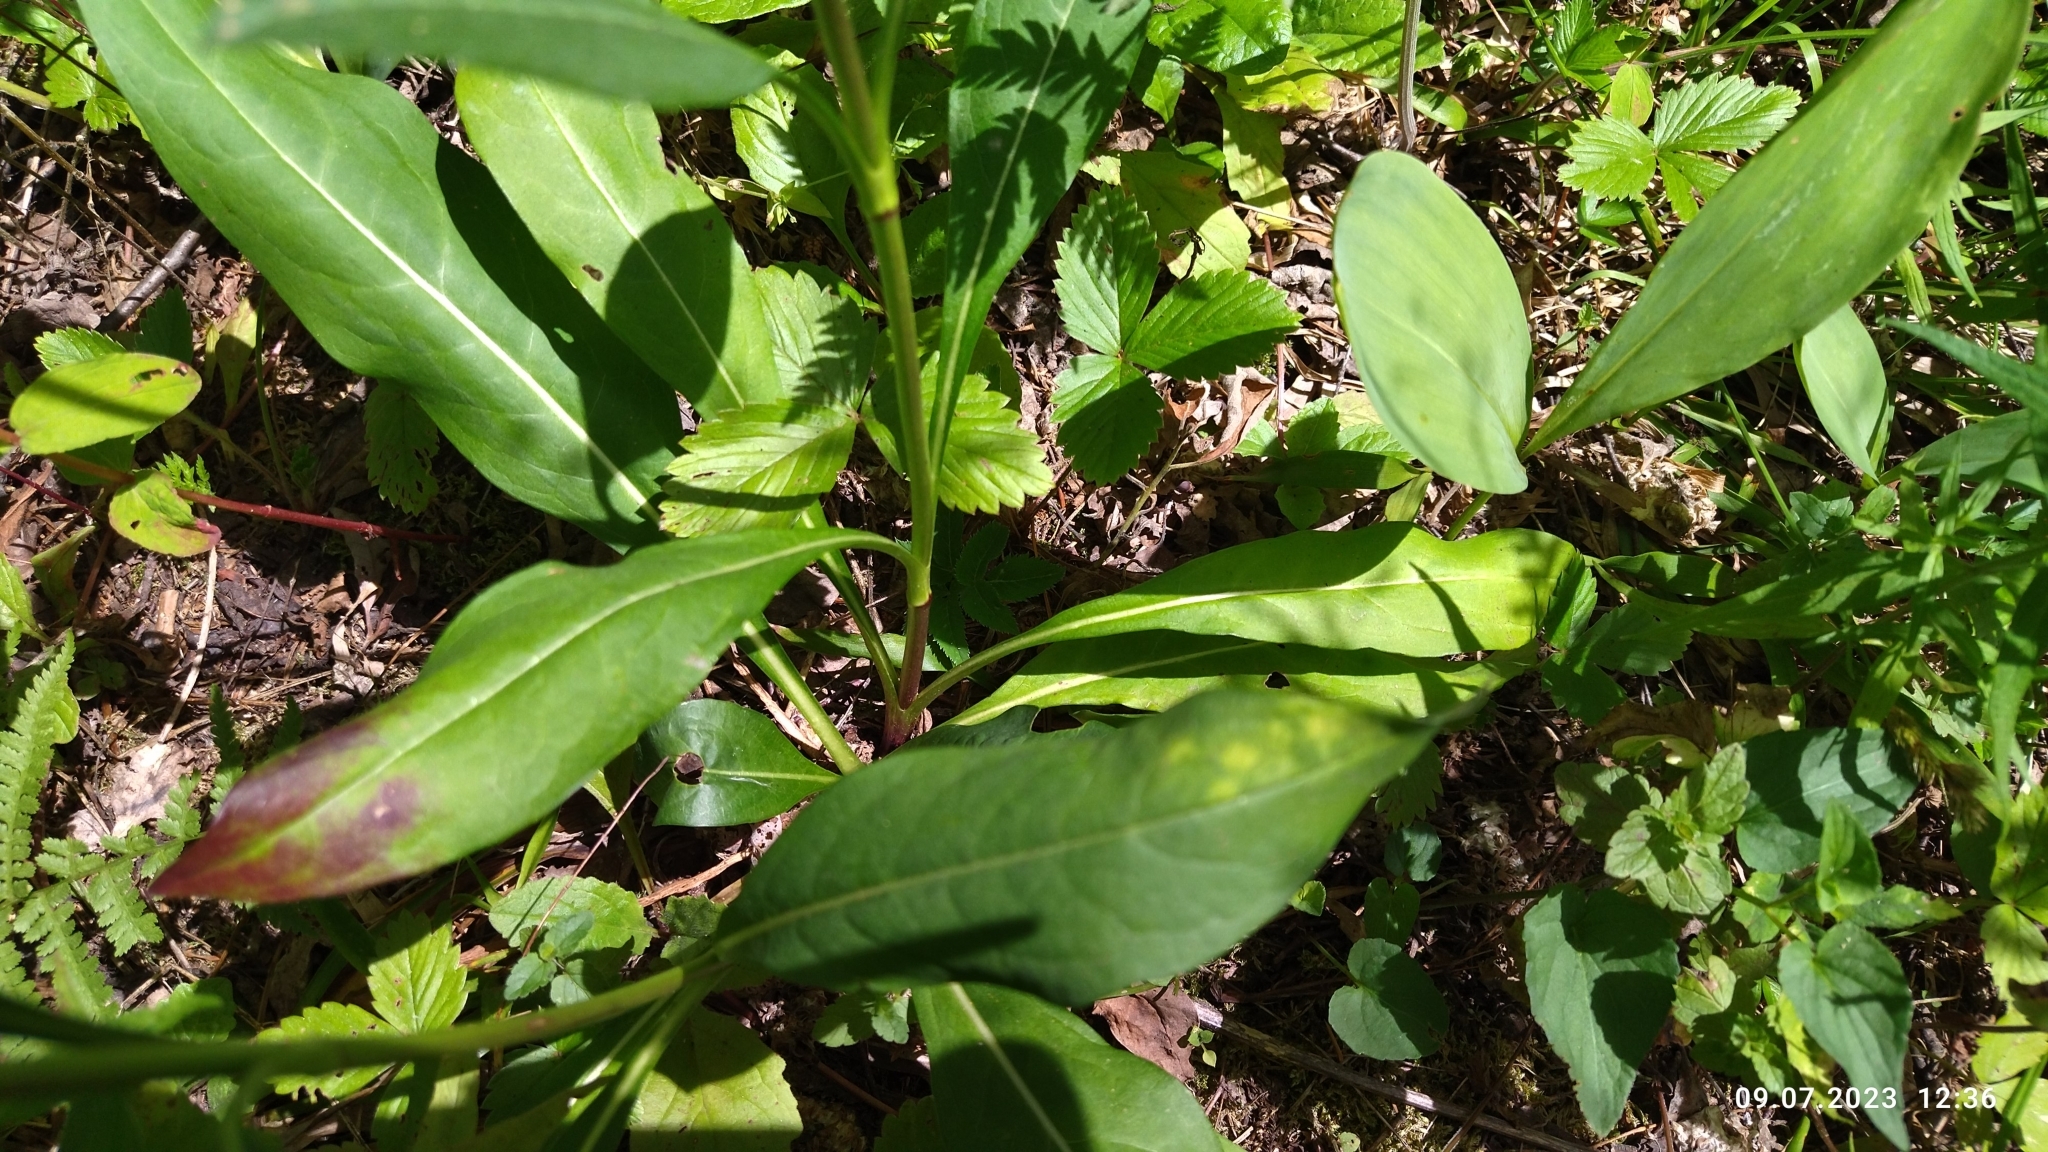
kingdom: Plantae
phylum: Tracheophyta
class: Magnoliopsida
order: Dipsacales
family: Caprifoliaceae
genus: Succisa
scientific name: Succisa pratensis
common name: Devil's-bit
